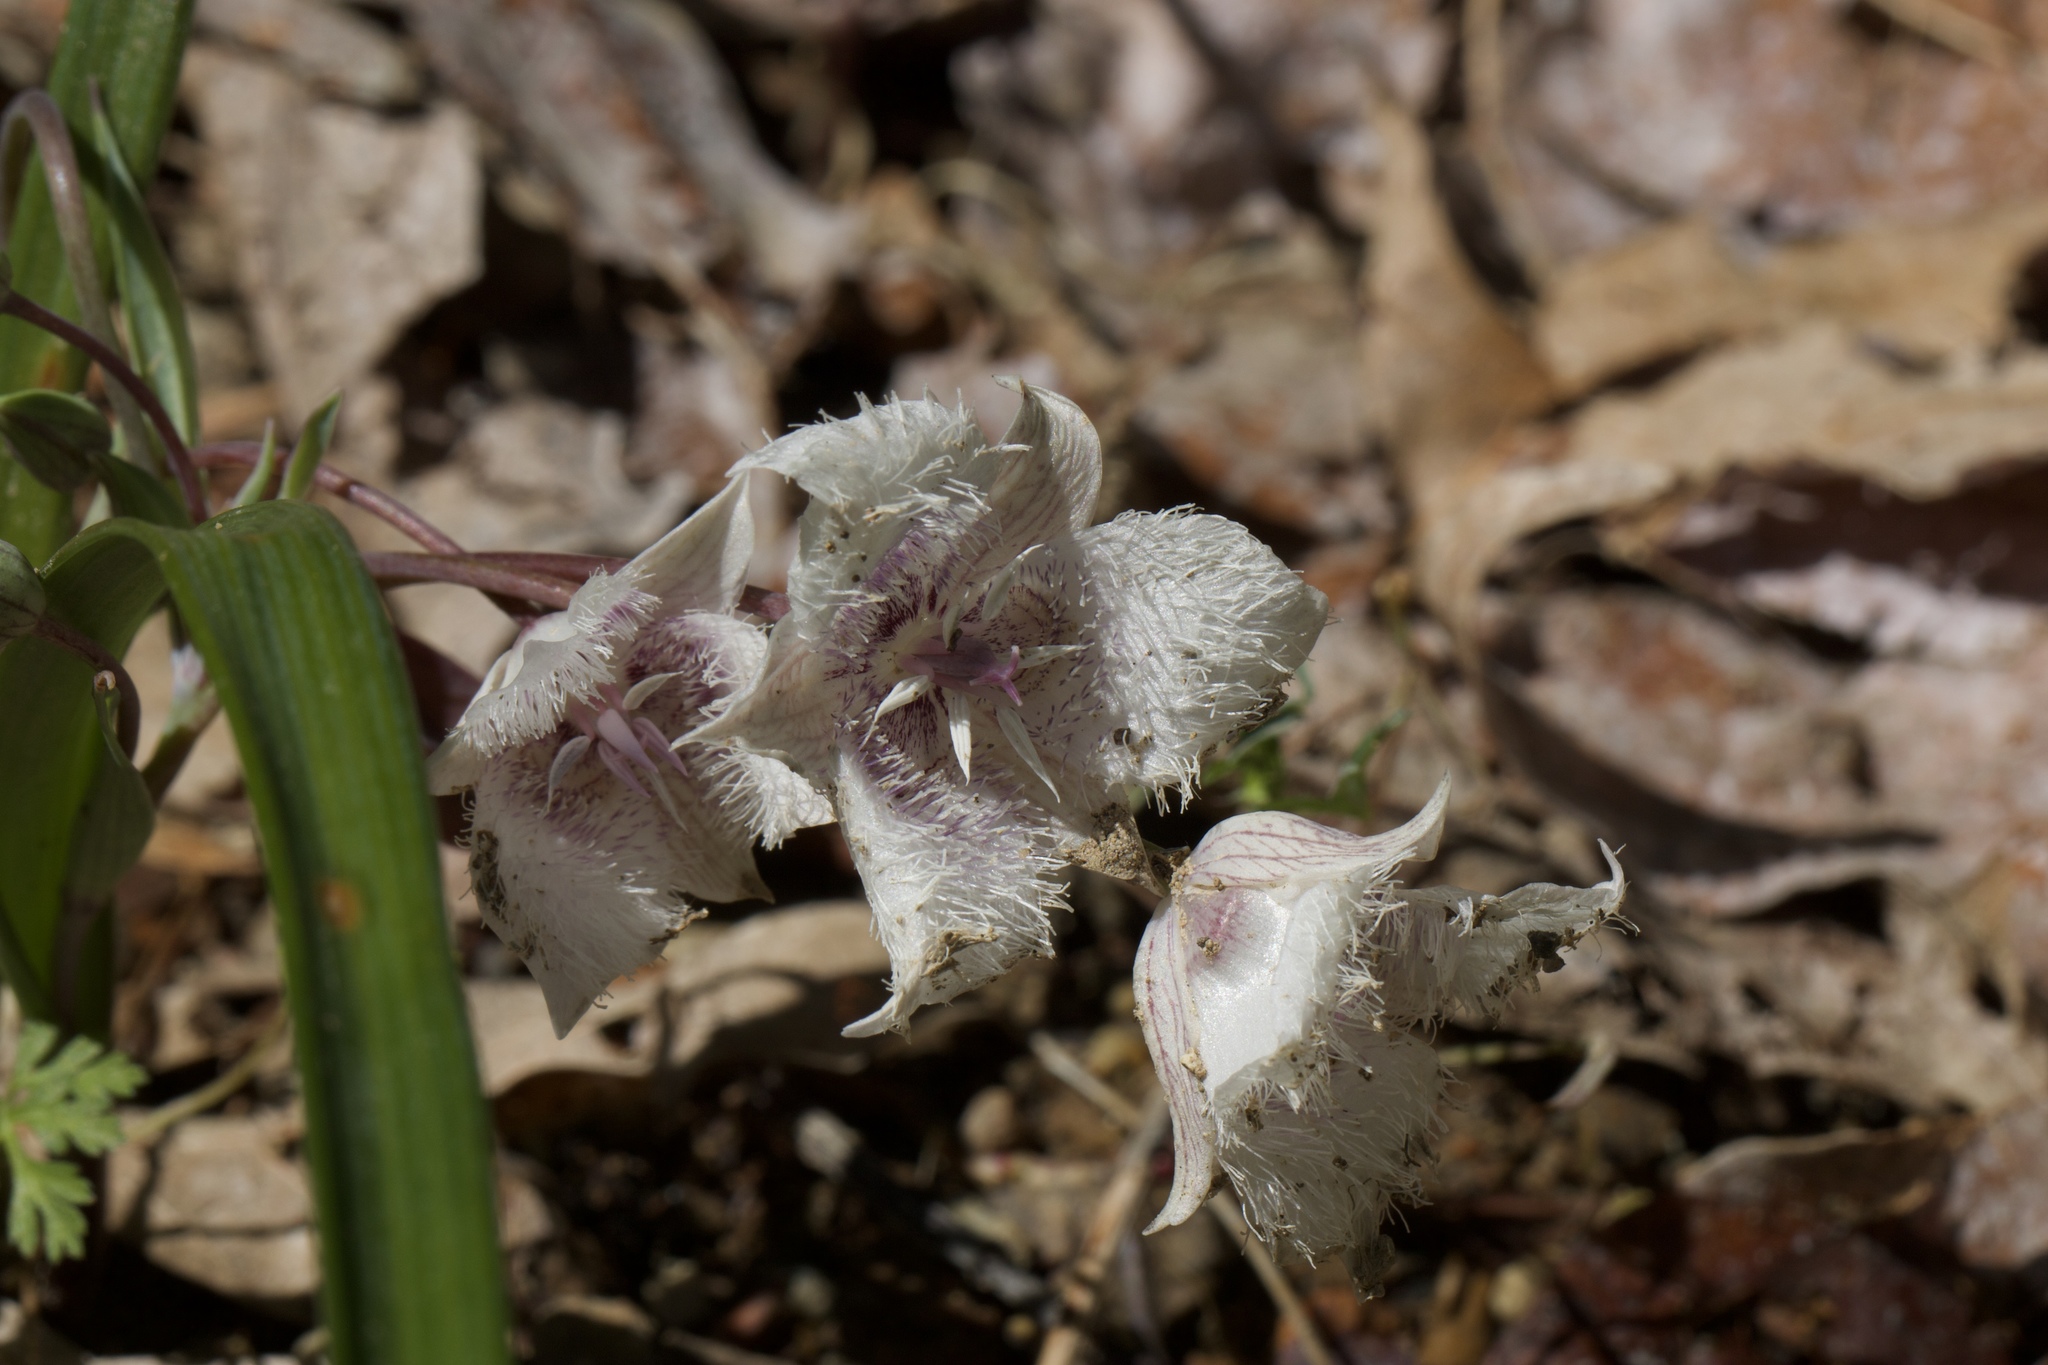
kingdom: Plantae
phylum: Tracheophyta
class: Liliopsida
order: Liliales
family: Liliaceae
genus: Calochortus
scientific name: Calochortus tolmiei
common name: Pussy-ears
